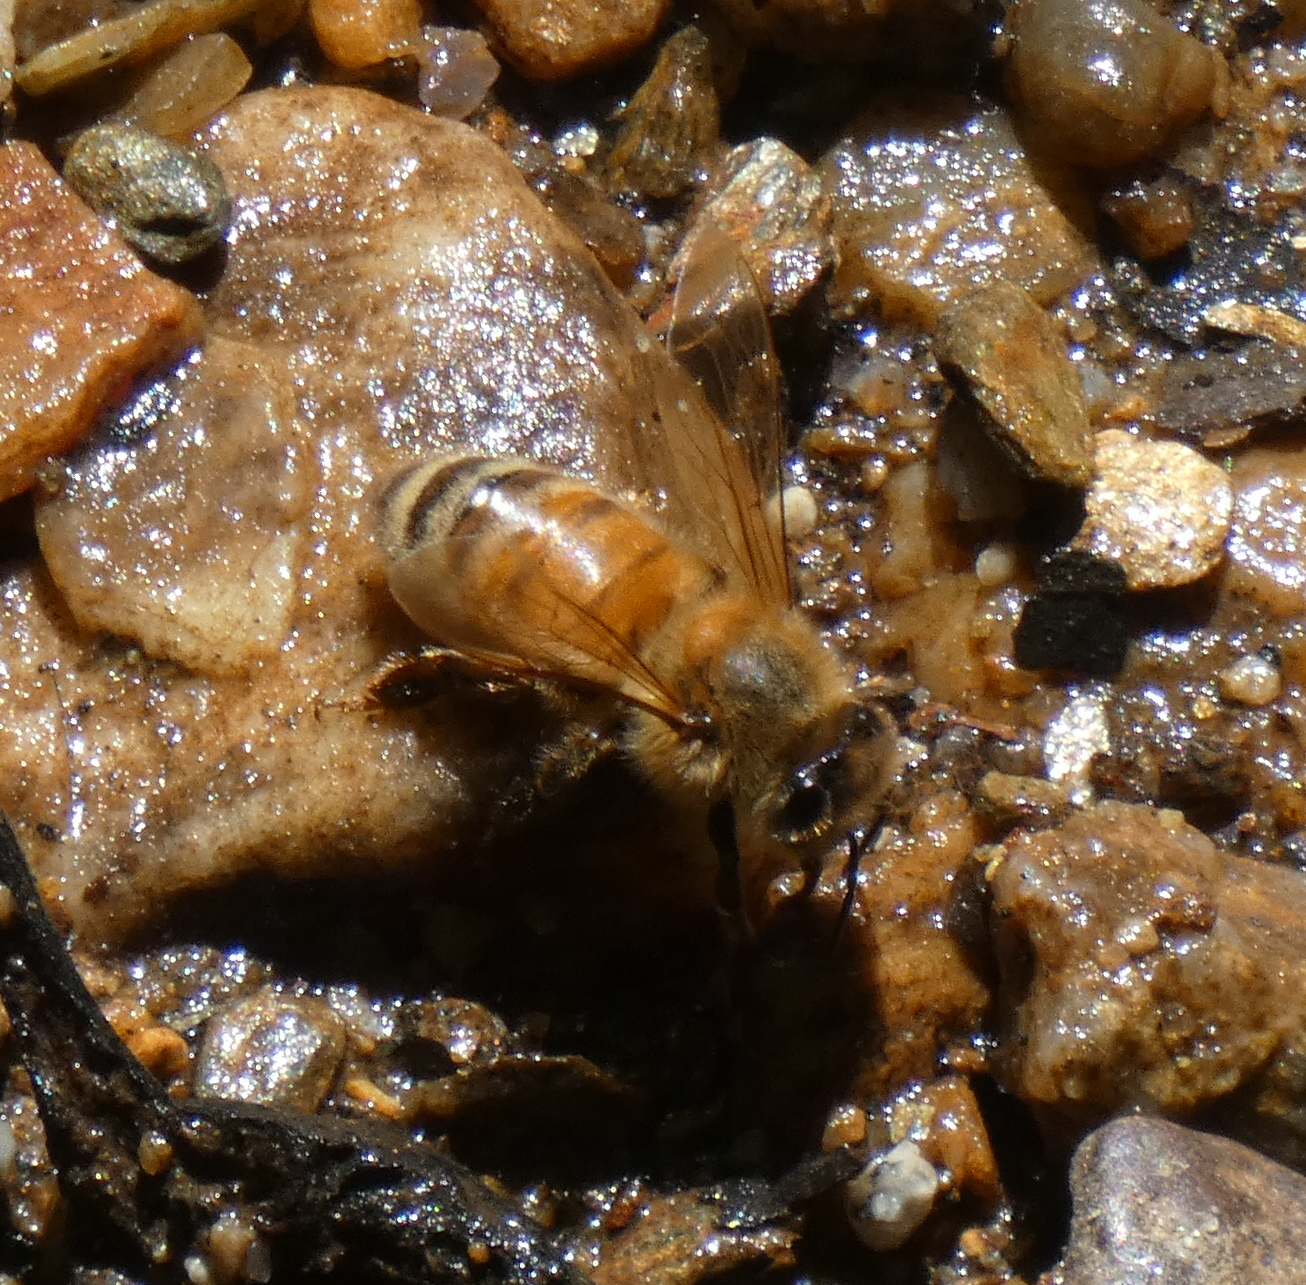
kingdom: Animalia
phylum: Arthropoda
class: Insecta
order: Hymenoptera
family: Apidae
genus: Apis
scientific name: Apis mellifera
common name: Honey bee
